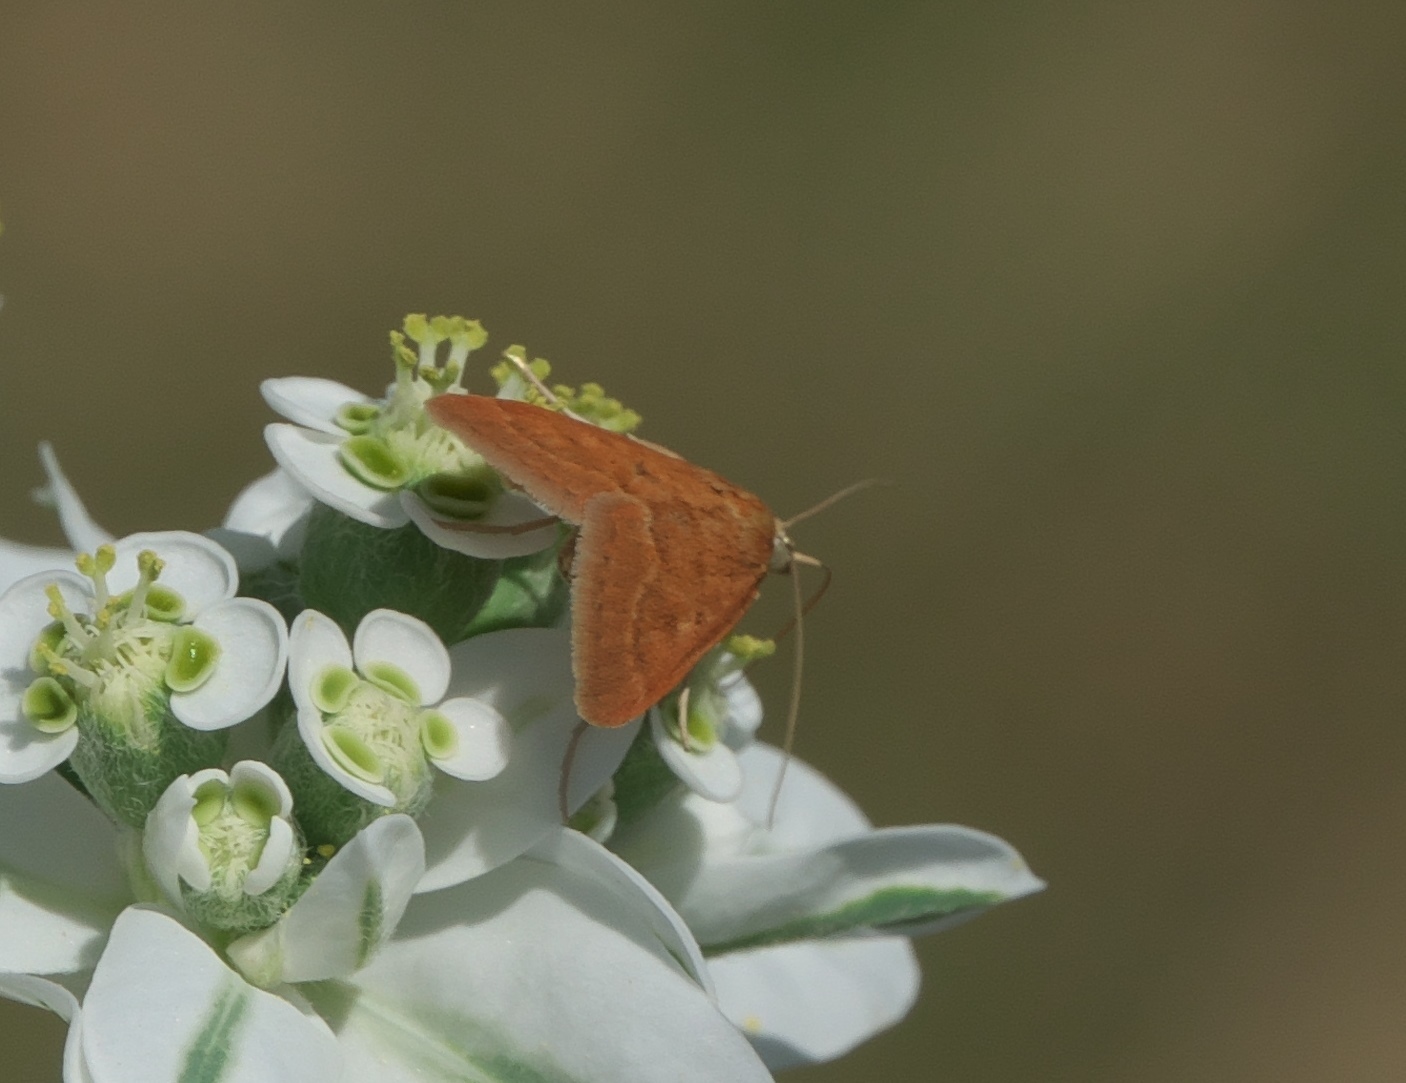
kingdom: Animalia
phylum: Arthropoda
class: Insecta
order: Lepidoptera
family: Crambidae
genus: Achyra
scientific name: Achyra rantalis
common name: Garden webworm
